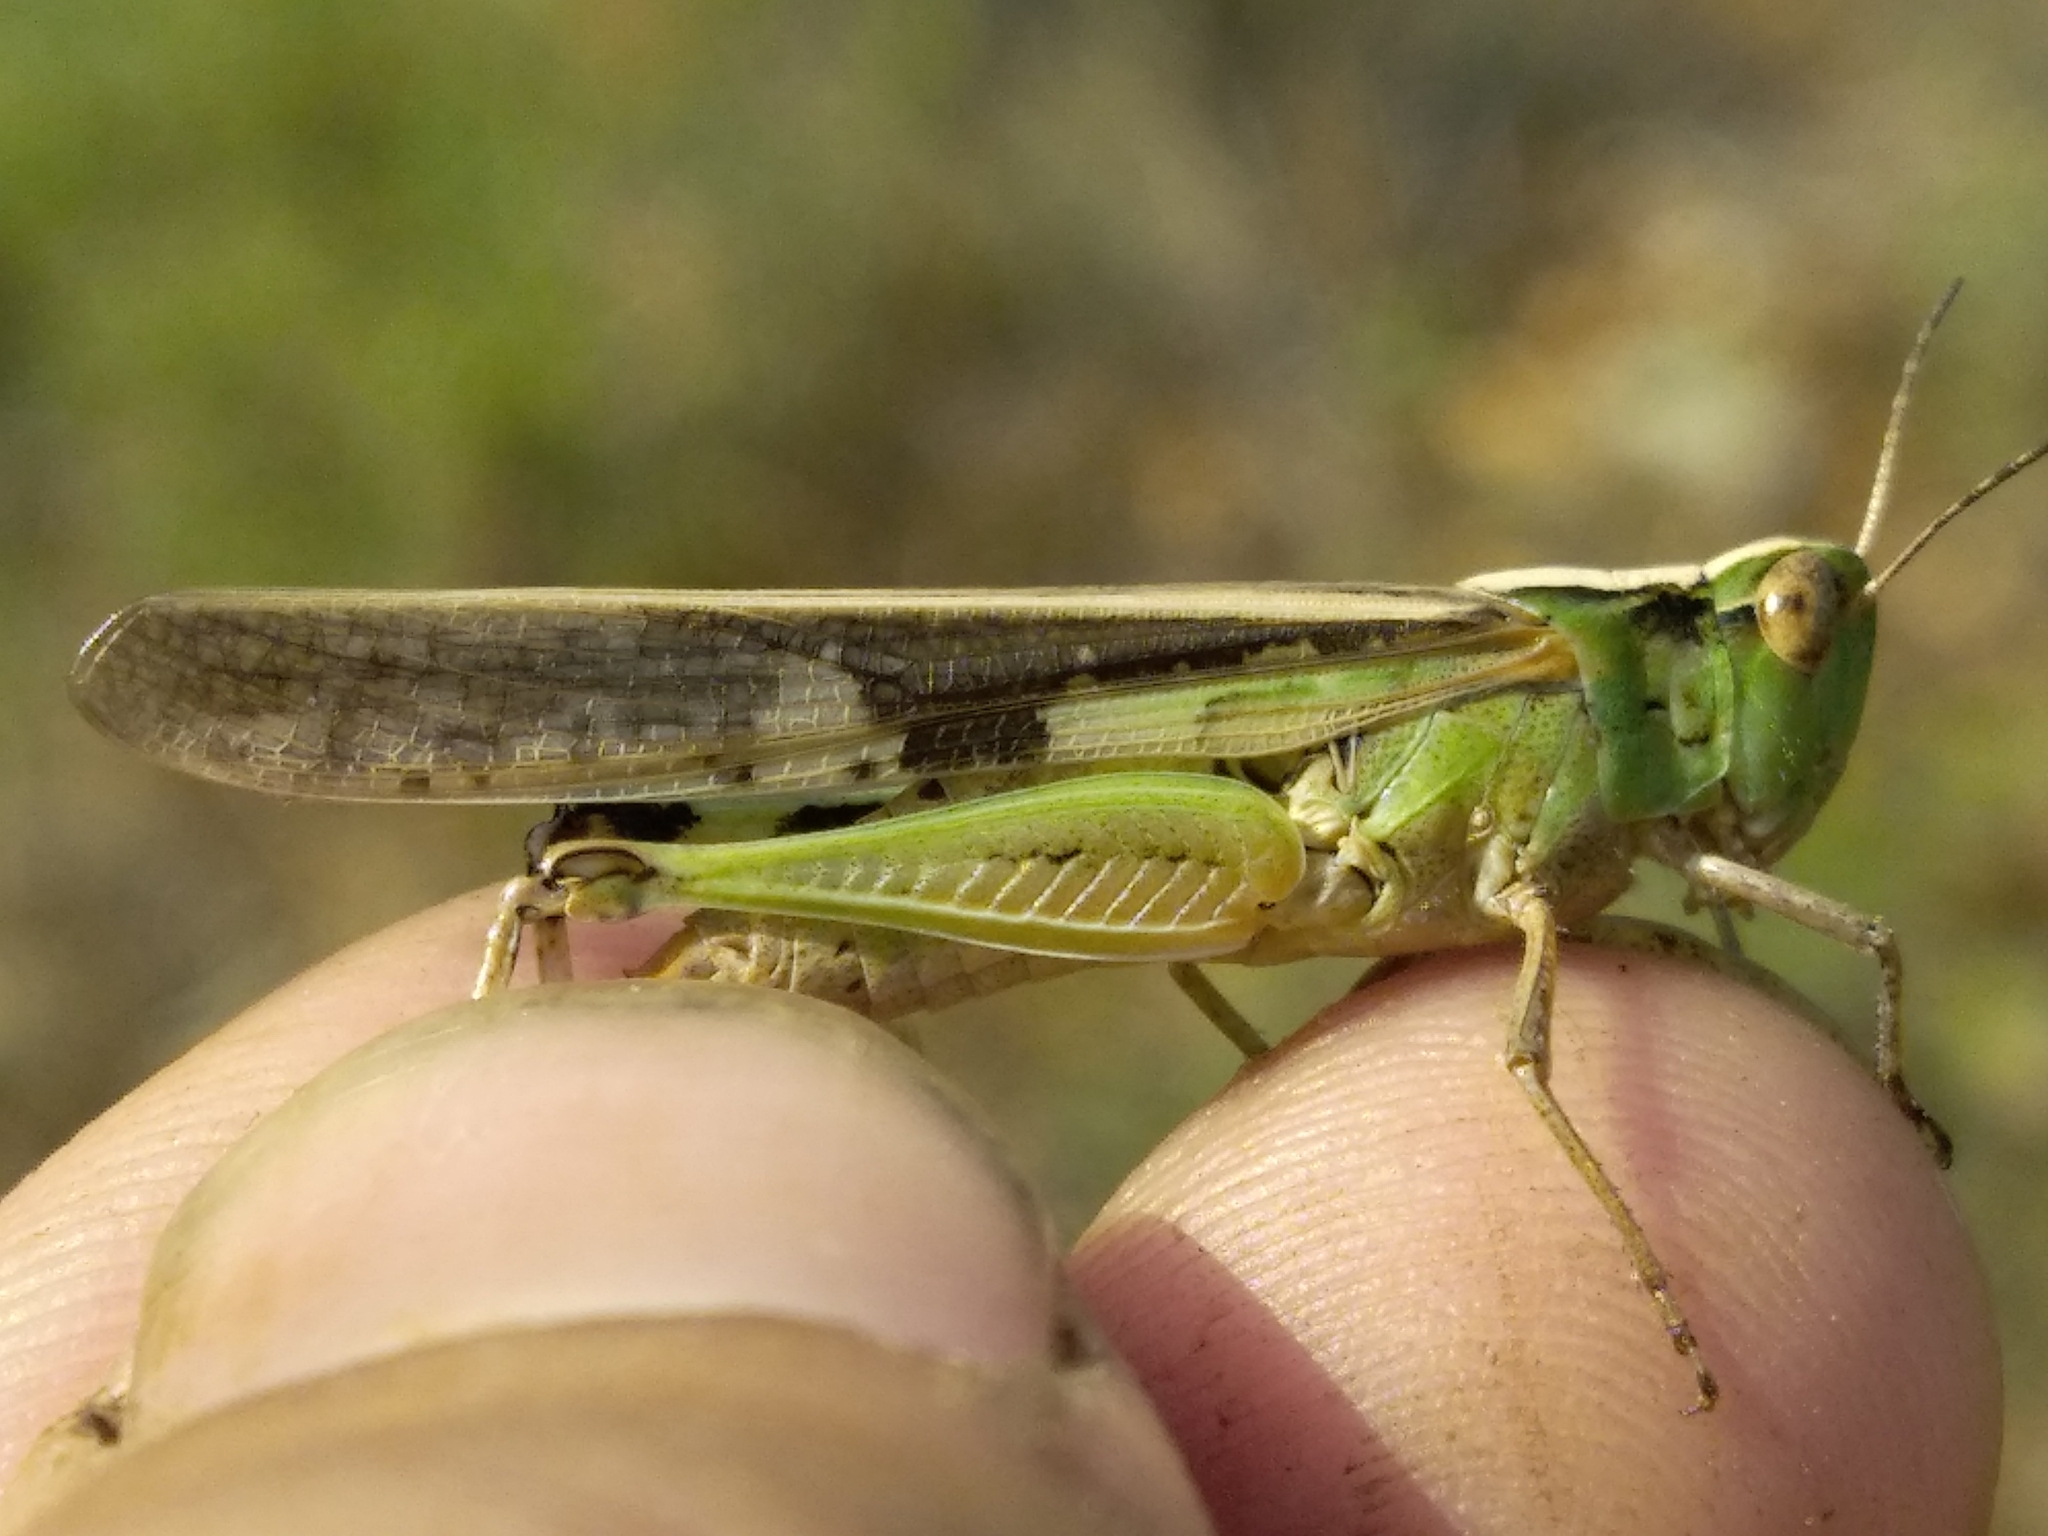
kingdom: Animalia
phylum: Arthropoda
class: Insecta
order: Orthoptera
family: Acrididae
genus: Aiolopus
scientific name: Aiolopus puissanti
